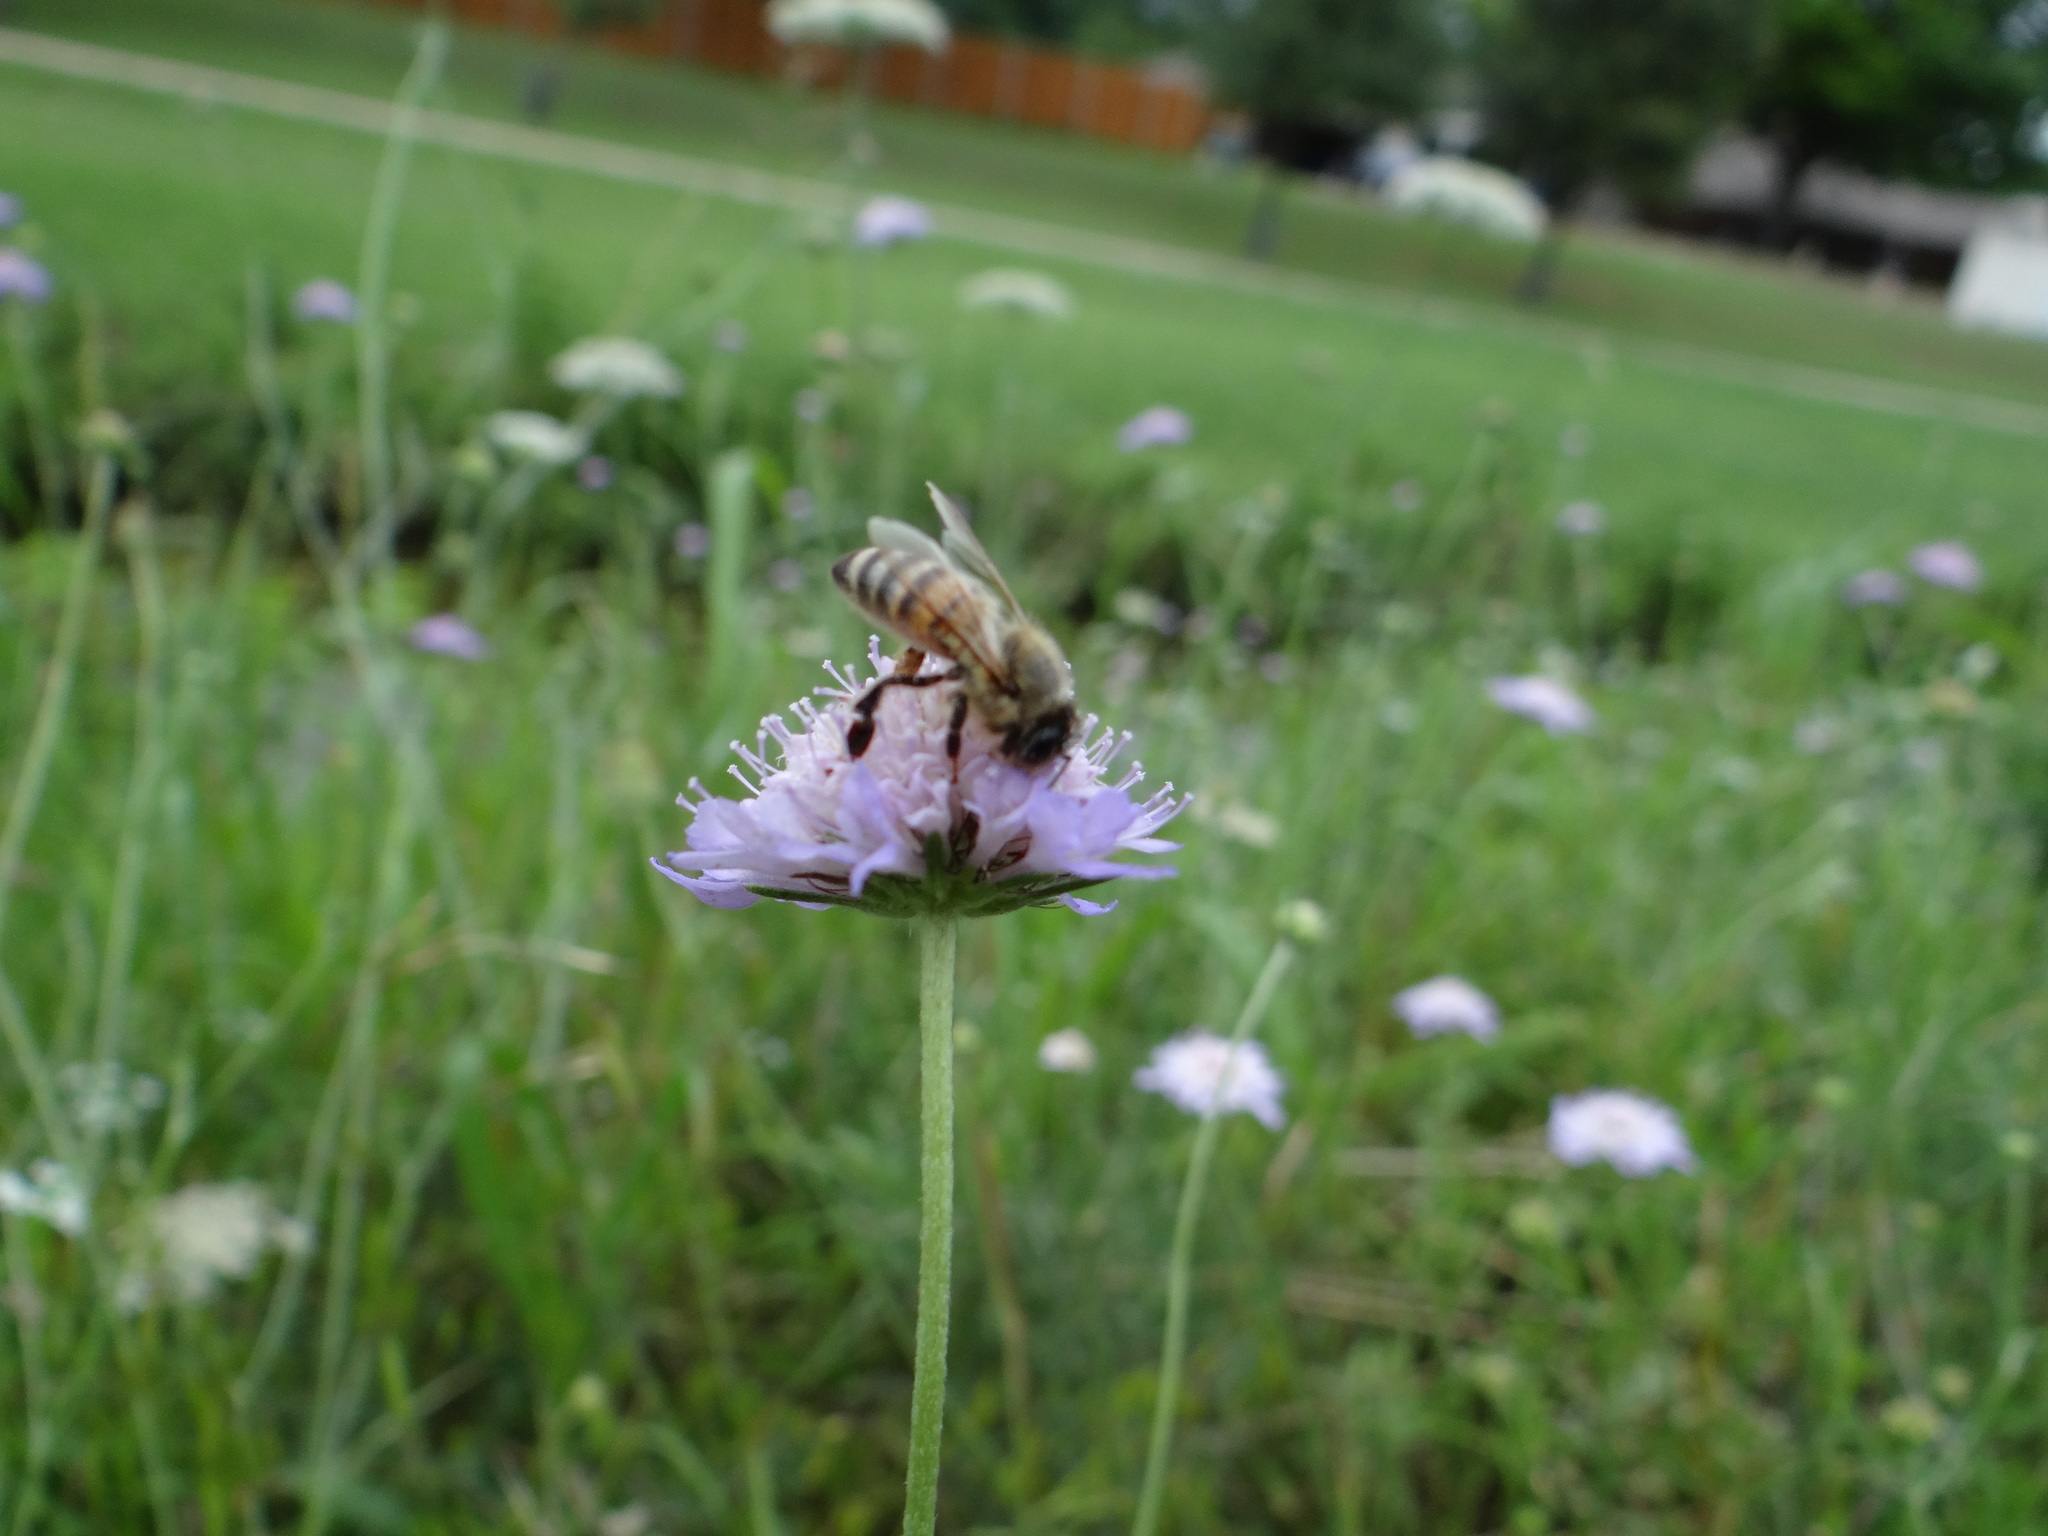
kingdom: Animalia
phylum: Arthropoda
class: Insecta
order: Hymenoptera
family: Apidae
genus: Apis
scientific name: Apis mellifera
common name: Honey bee
